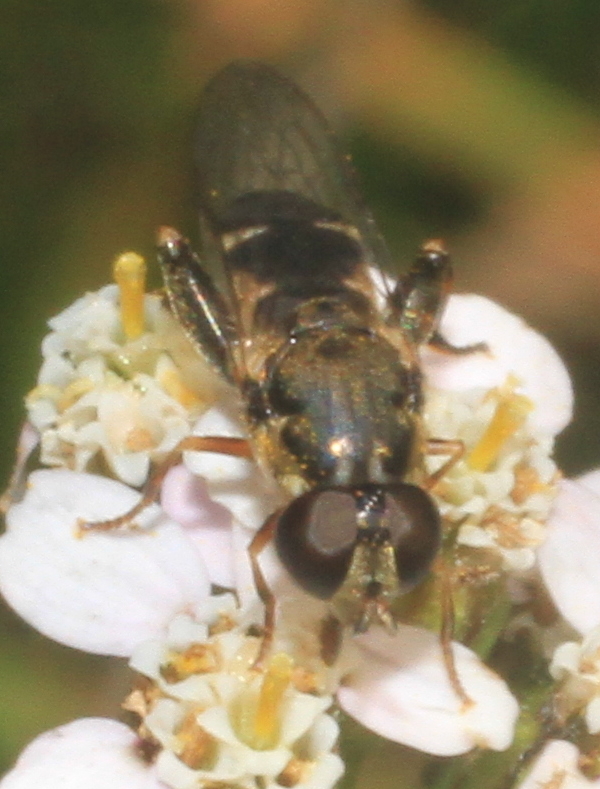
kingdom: Animalia
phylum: Arthropoda
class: Insecta
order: Diptera
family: Syrphidae
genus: Syritta
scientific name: Syritta pipiens
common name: Hover fly
